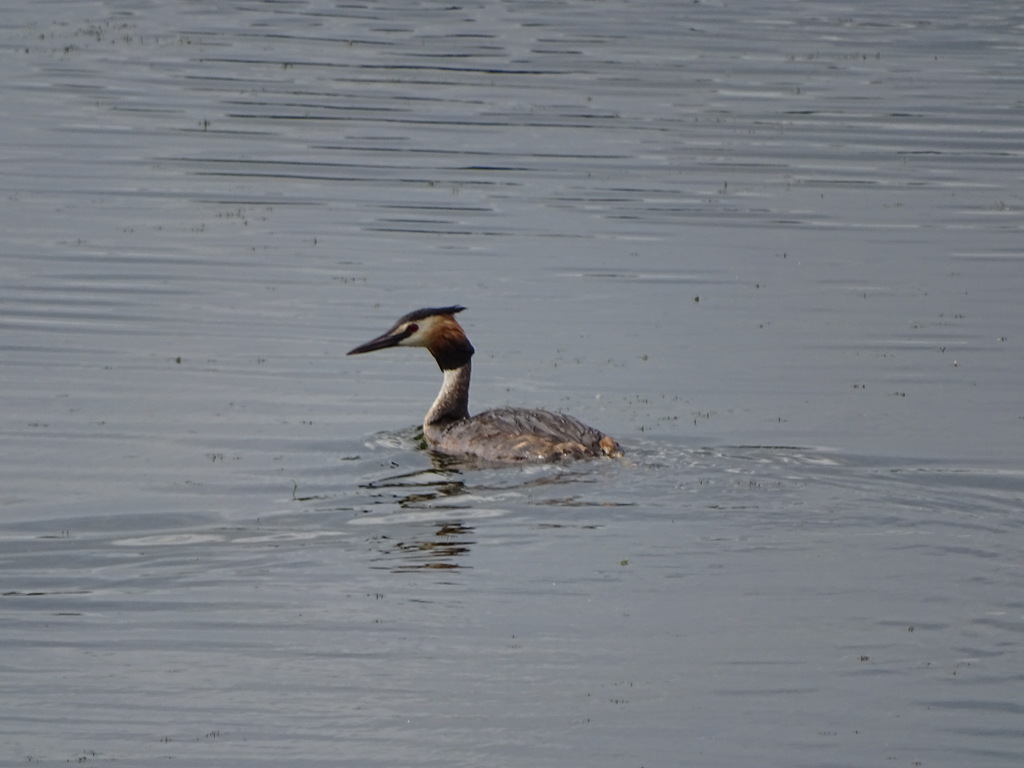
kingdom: Animalia
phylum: Chordata
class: Aves
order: Podicipediformes
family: Podicipedidae
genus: Podiceps
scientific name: Podiceps cristatus
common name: Great crested grebe
